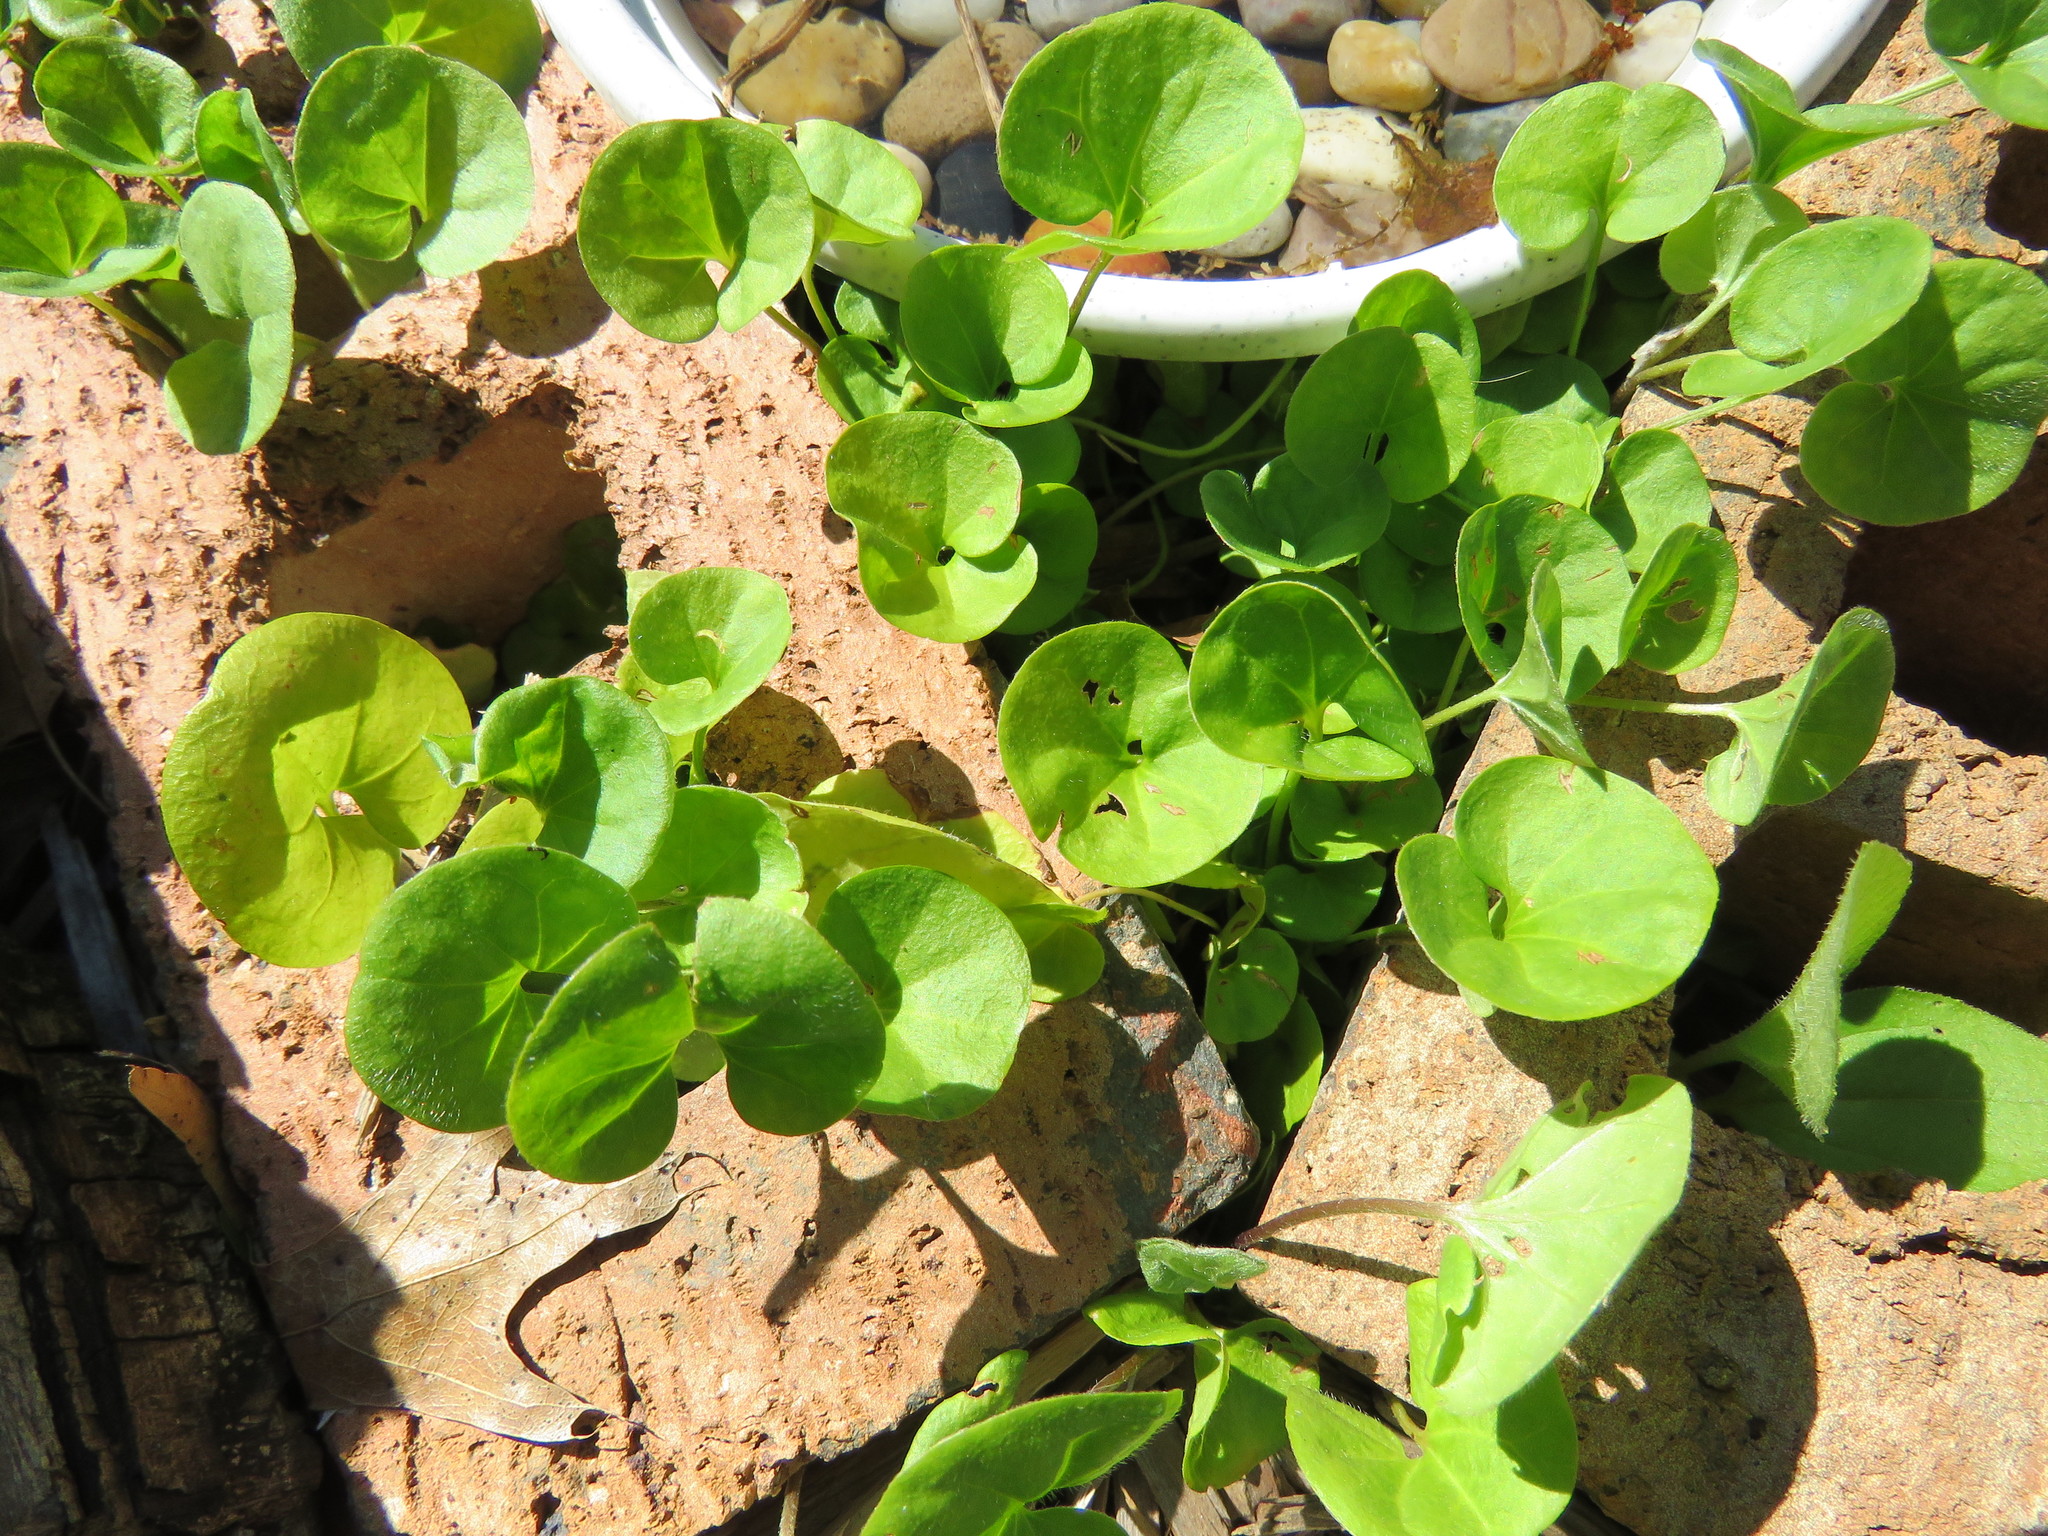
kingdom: Plantae
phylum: Tracheophyta
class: Magnoliopsida
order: Solanales
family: Convolvulaceae
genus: Dichondra
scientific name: Dichondra carolinensis
